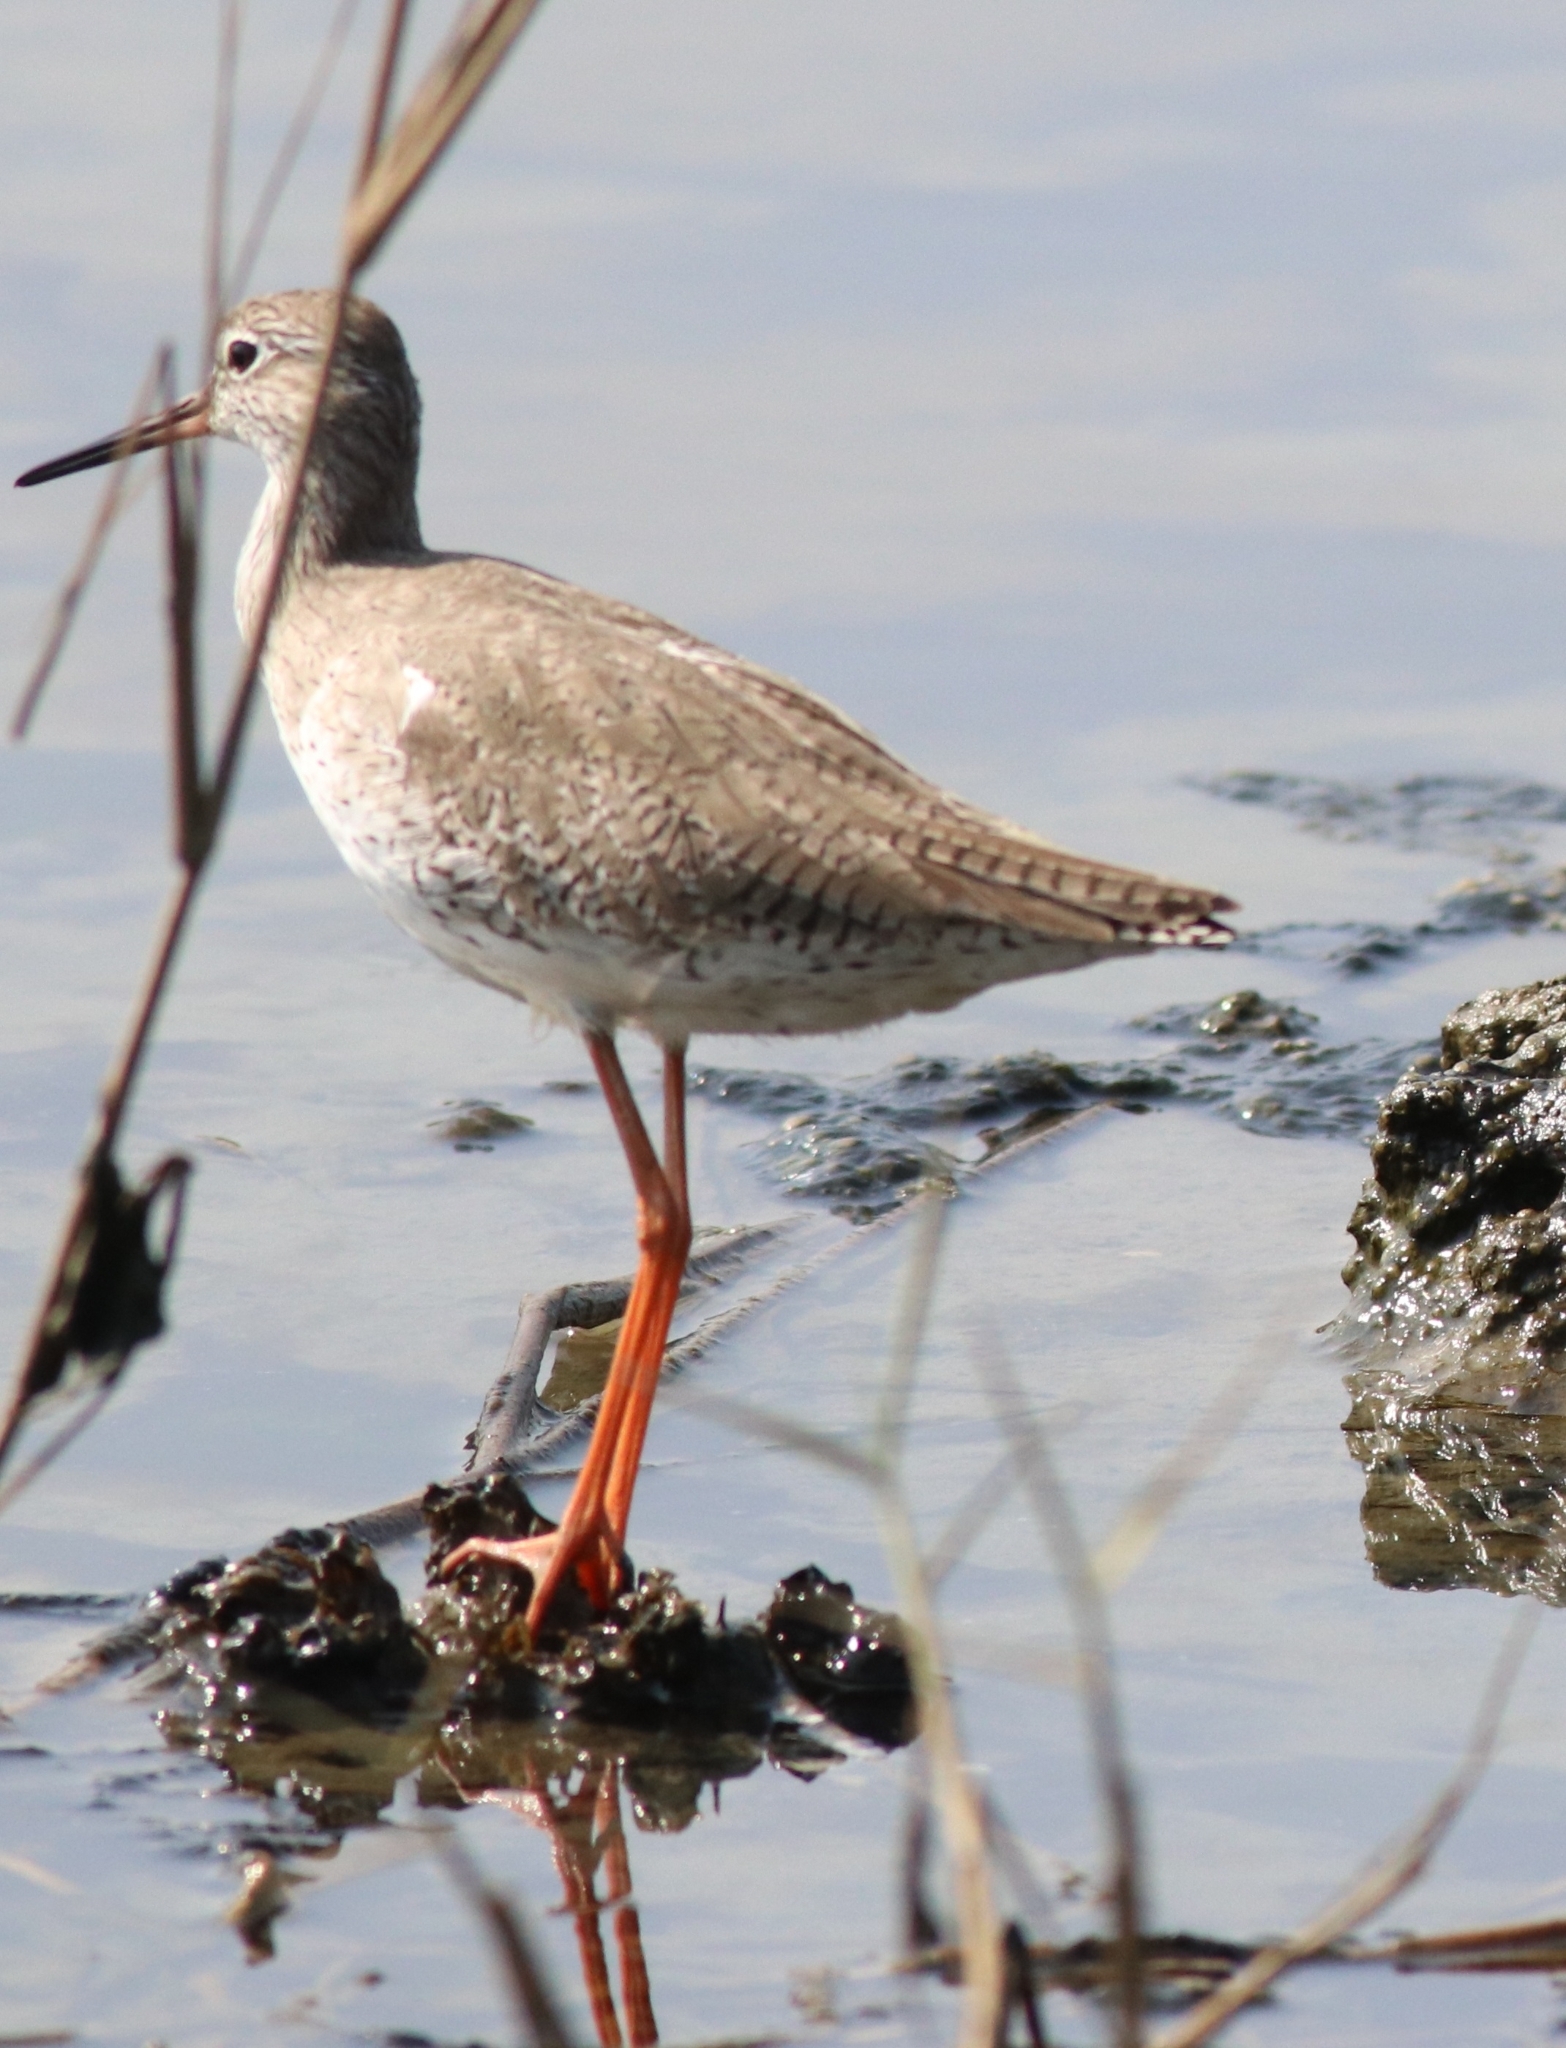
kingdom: Animalia
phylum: Chordata
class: Aves
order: Charadriiformes
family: Scolopacidae
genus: Tringa
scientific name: Tringa totanus
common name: Common redshank
